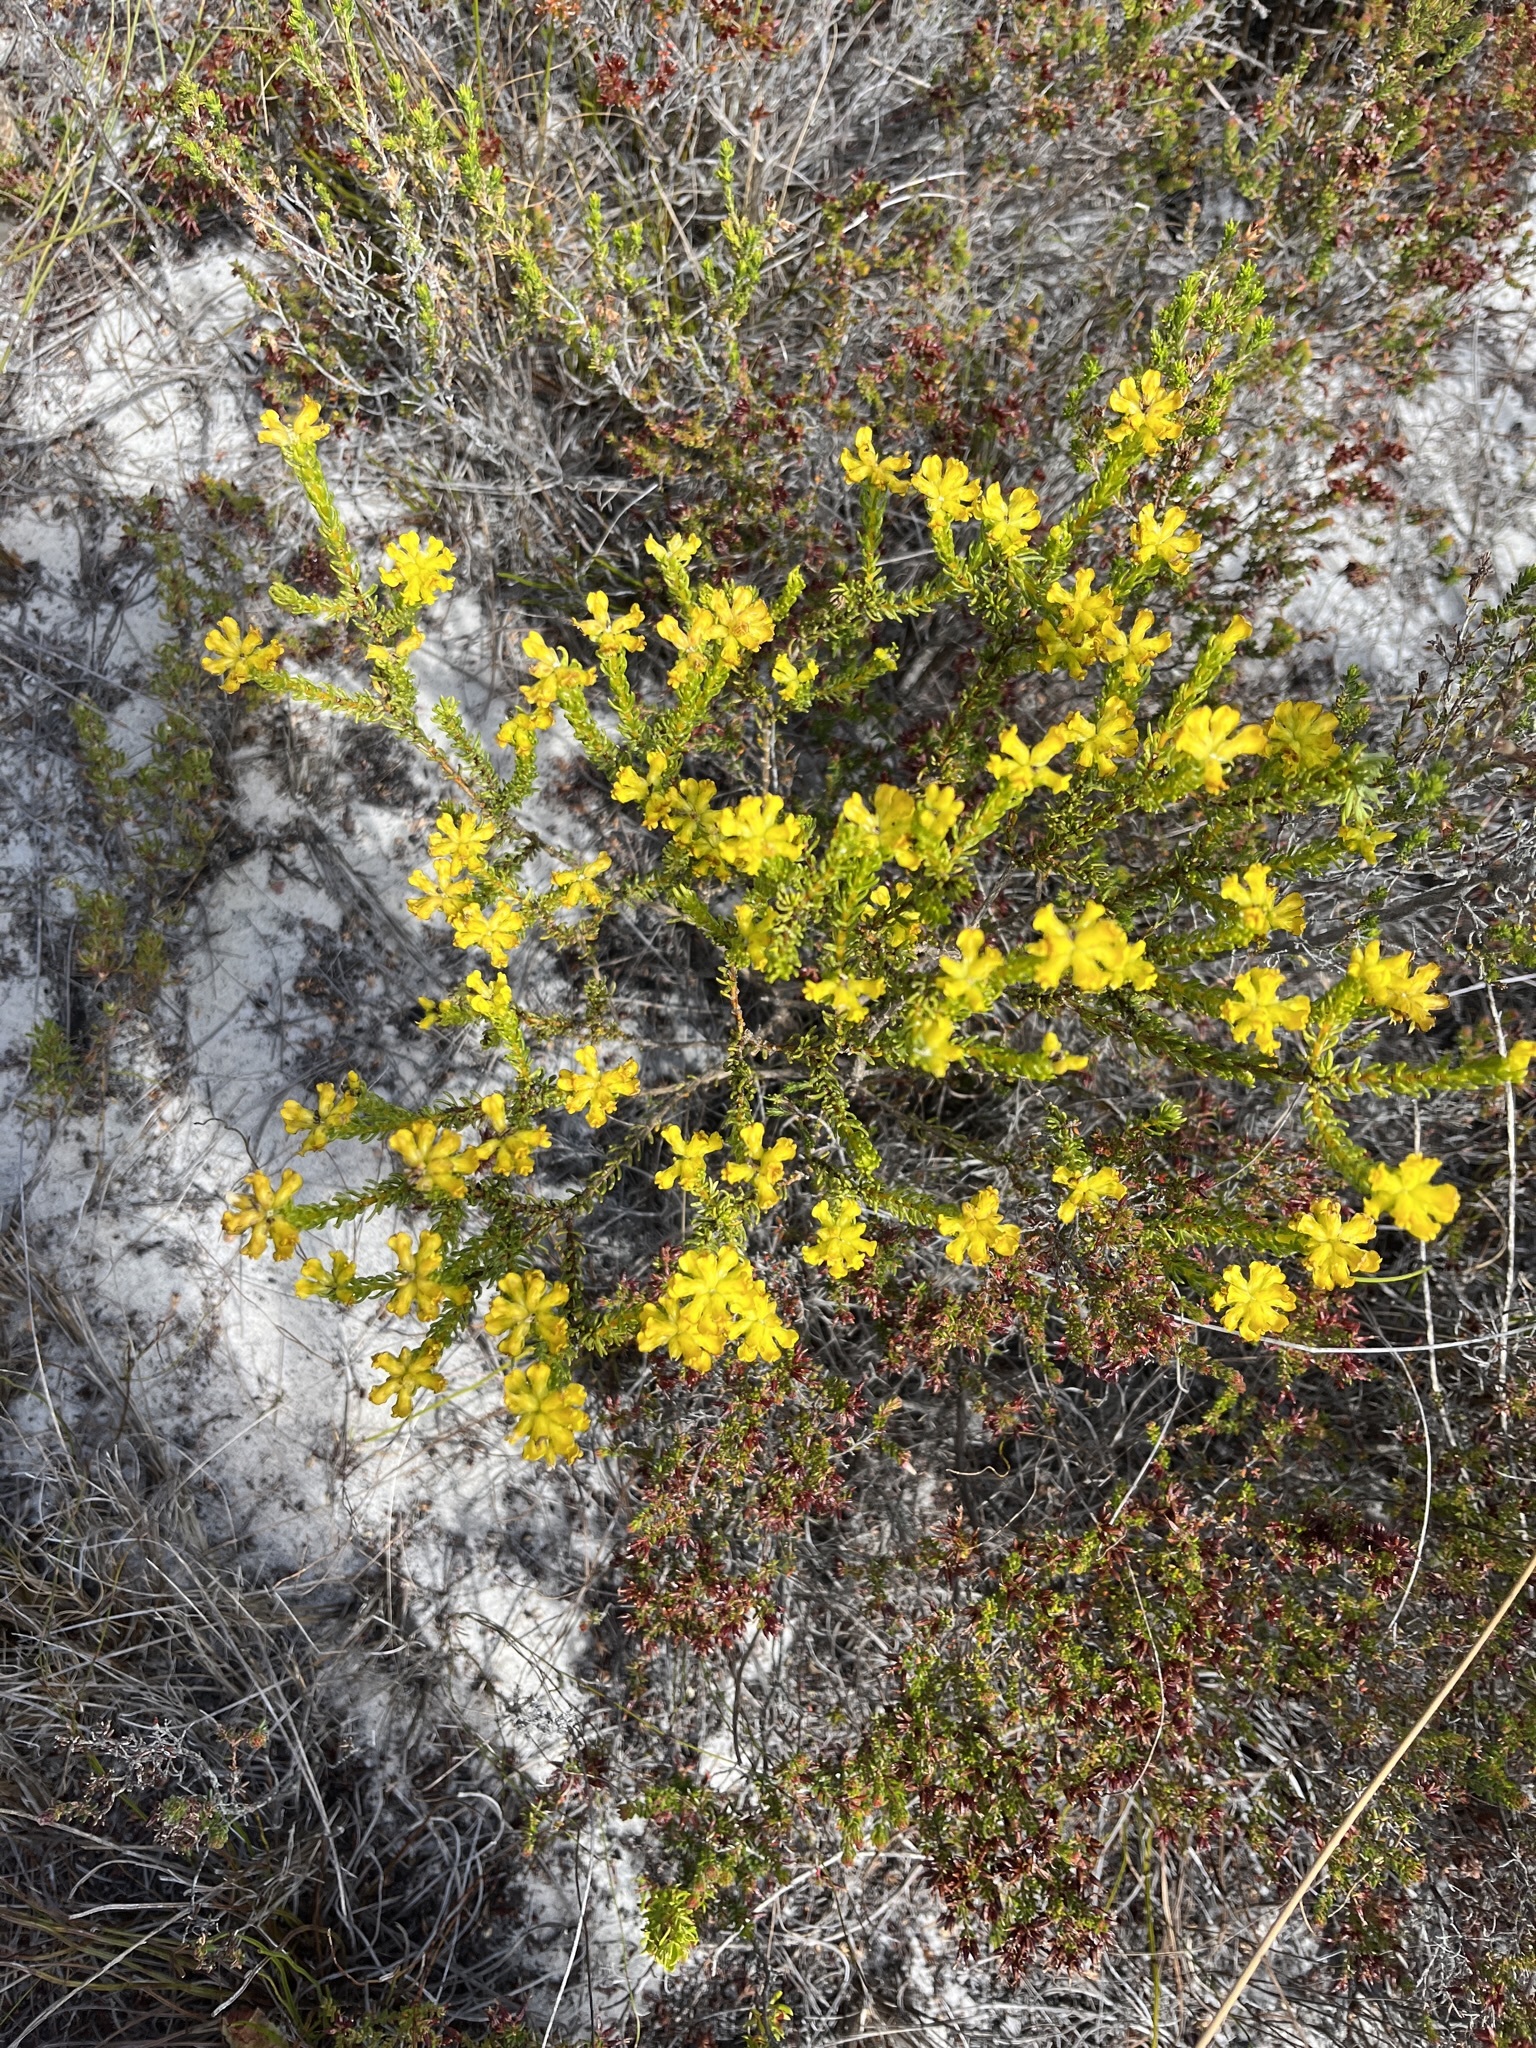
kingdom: Plantae
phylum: Tracheophyta
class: Magnoliopsida
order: Fabales
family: Fabaceae
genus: Aspalathus
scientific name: Aspalathus callosa
